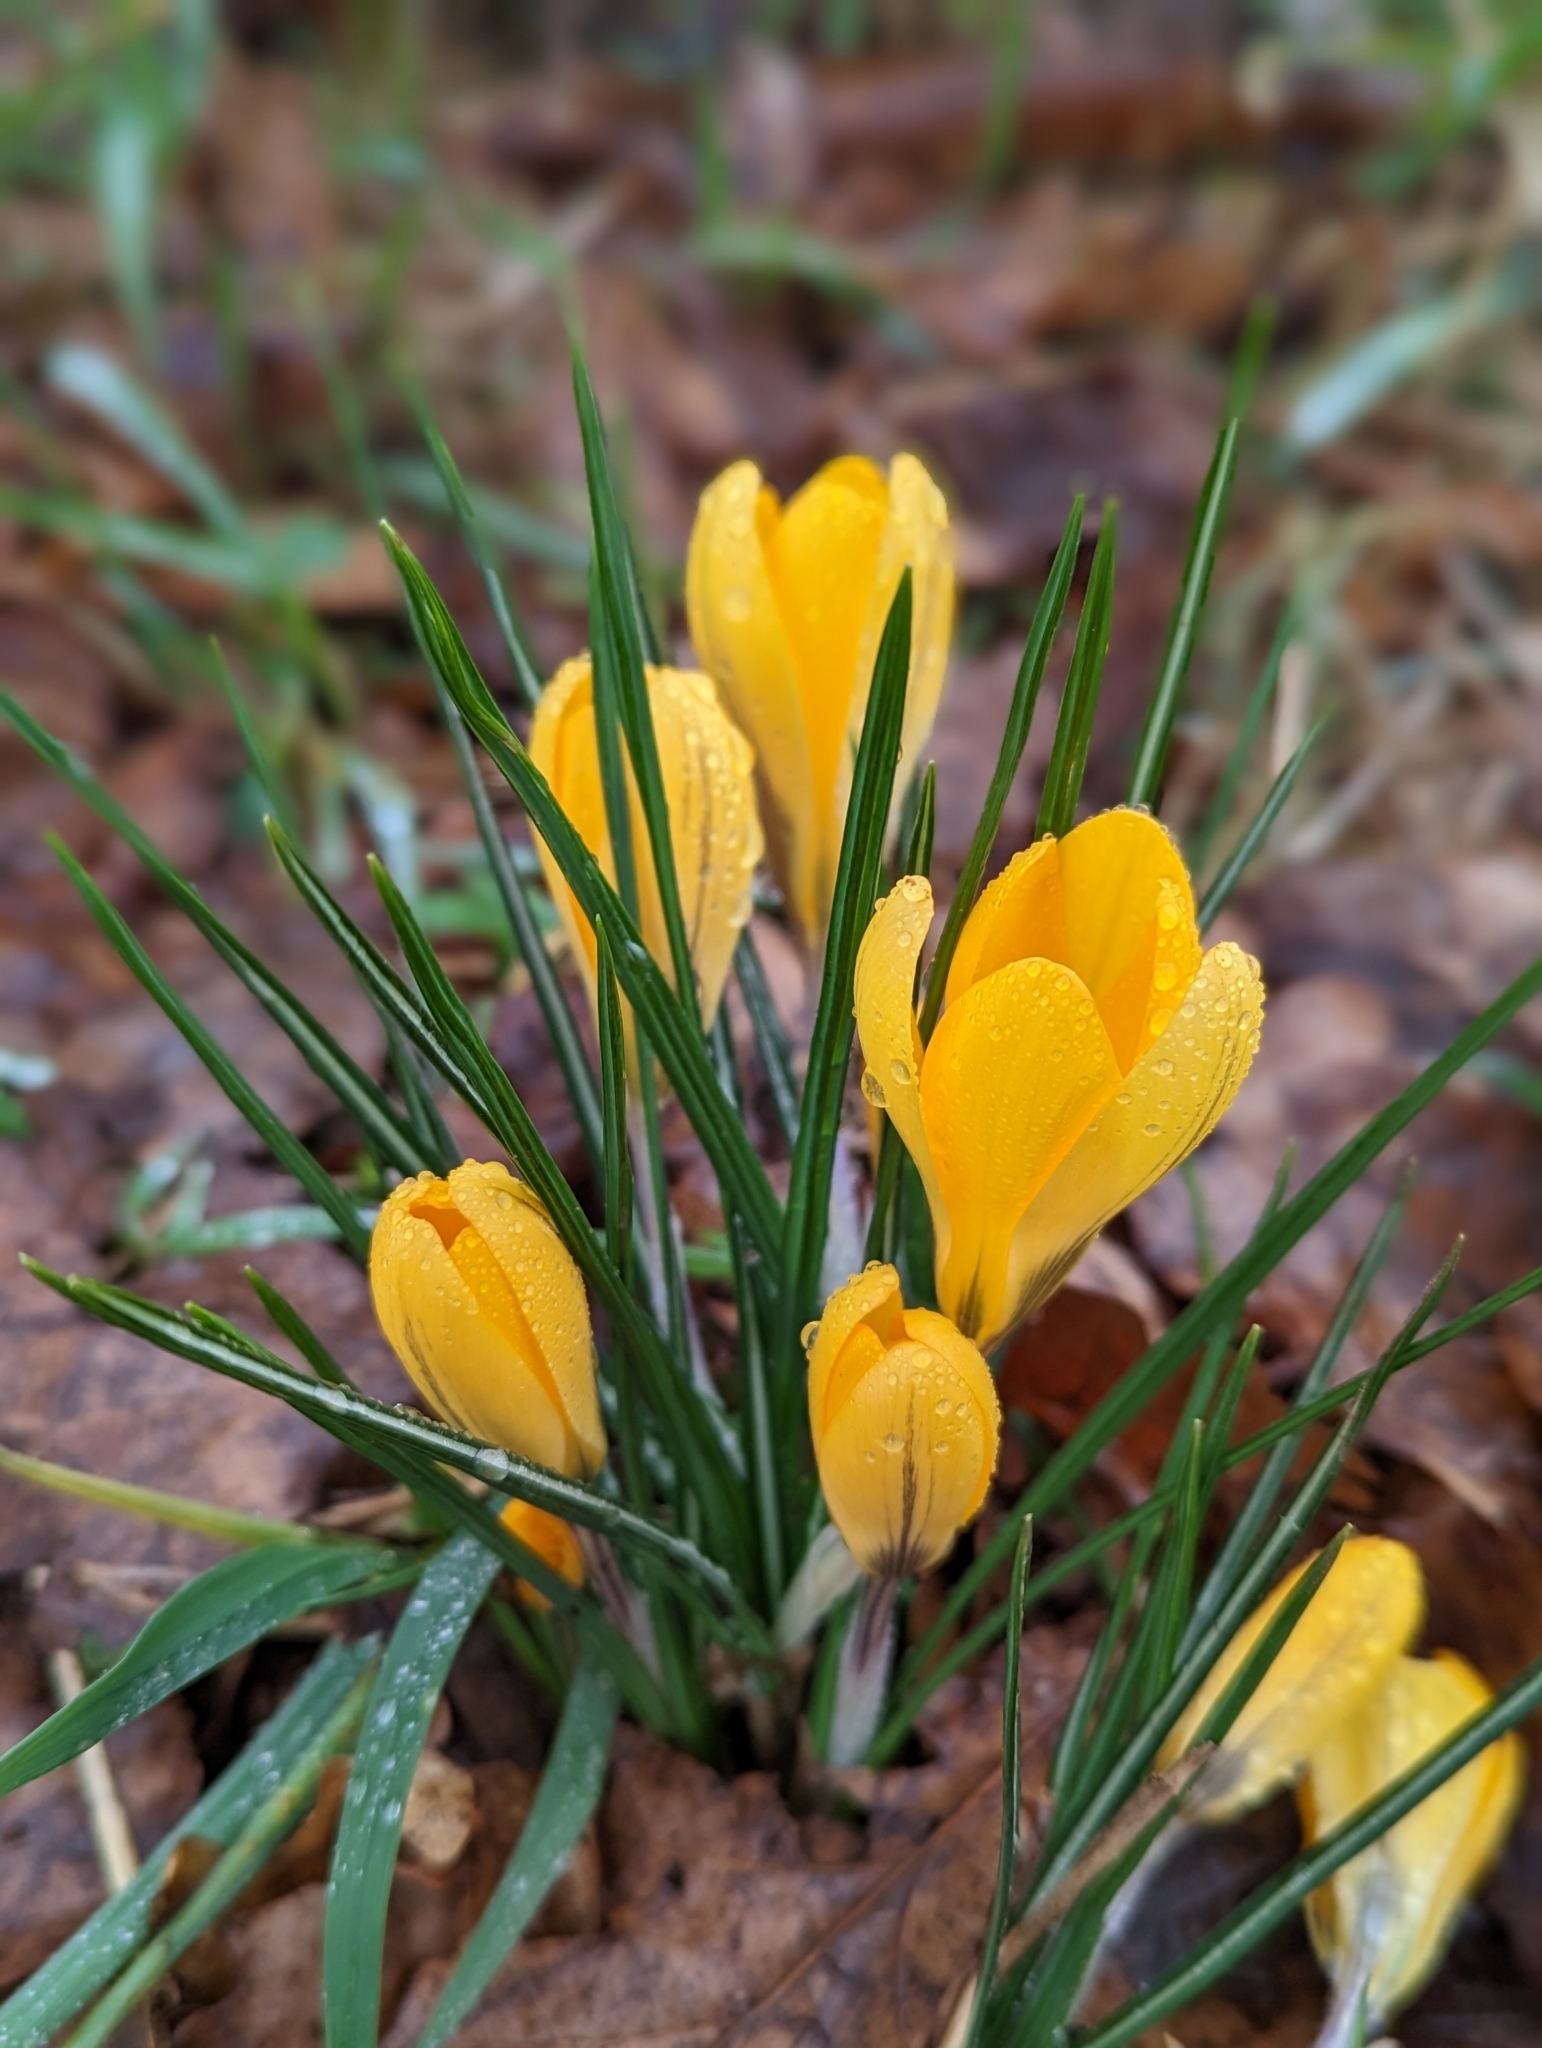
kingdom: Plantae
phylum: Tracheophyta
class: Liliopsida
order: Asparagales
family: Iridaceae
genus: Crocus
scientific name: Crocus luteus
